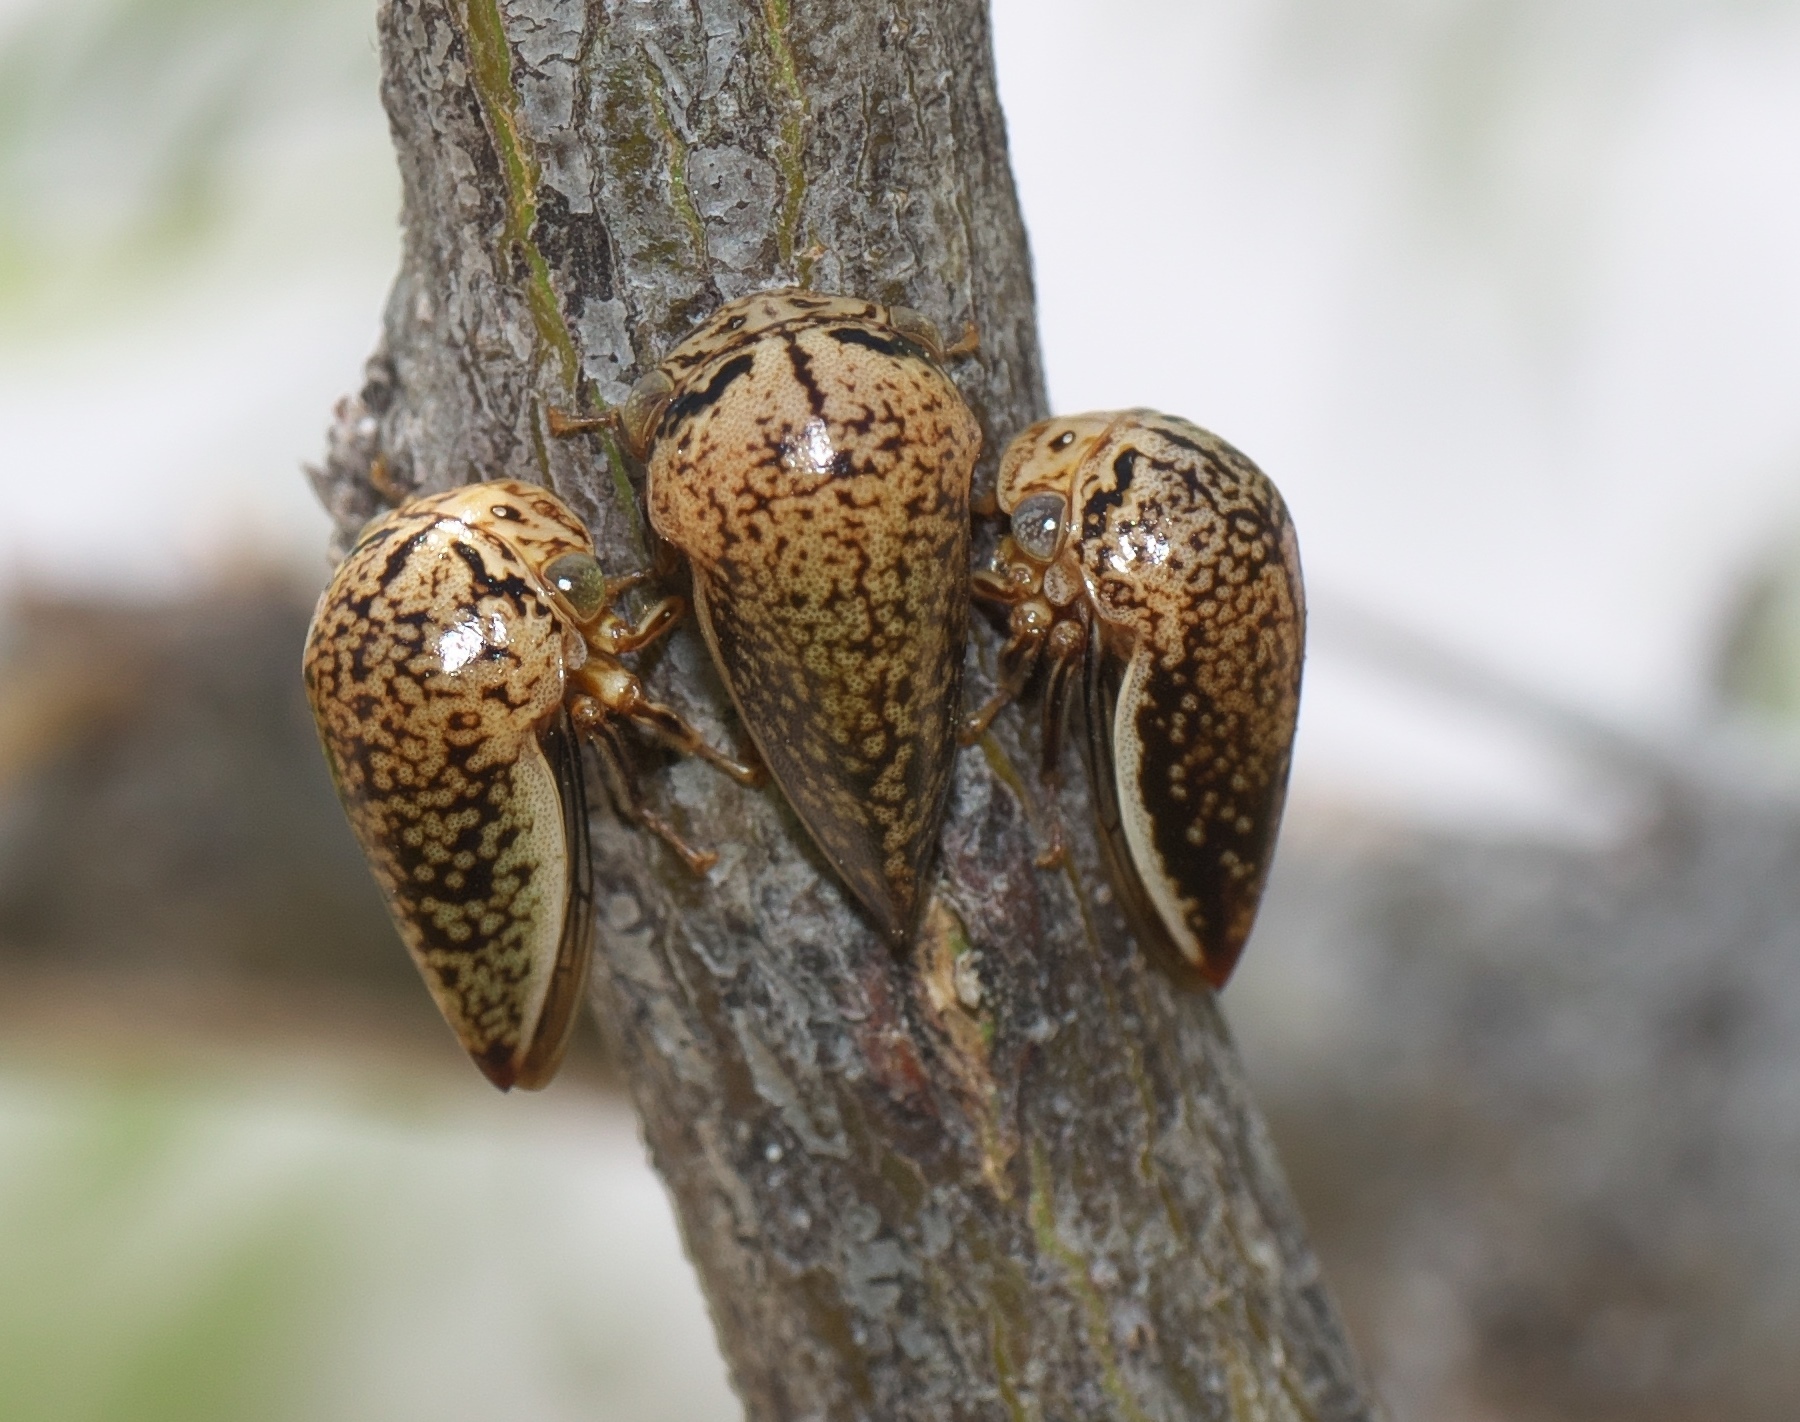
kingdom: Animalia
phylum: Arthropoda
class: Insecta
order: Hemiptera
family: Membracidae
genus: Stictopelta
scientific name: Stictopelta marmorata
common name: Treehopper
